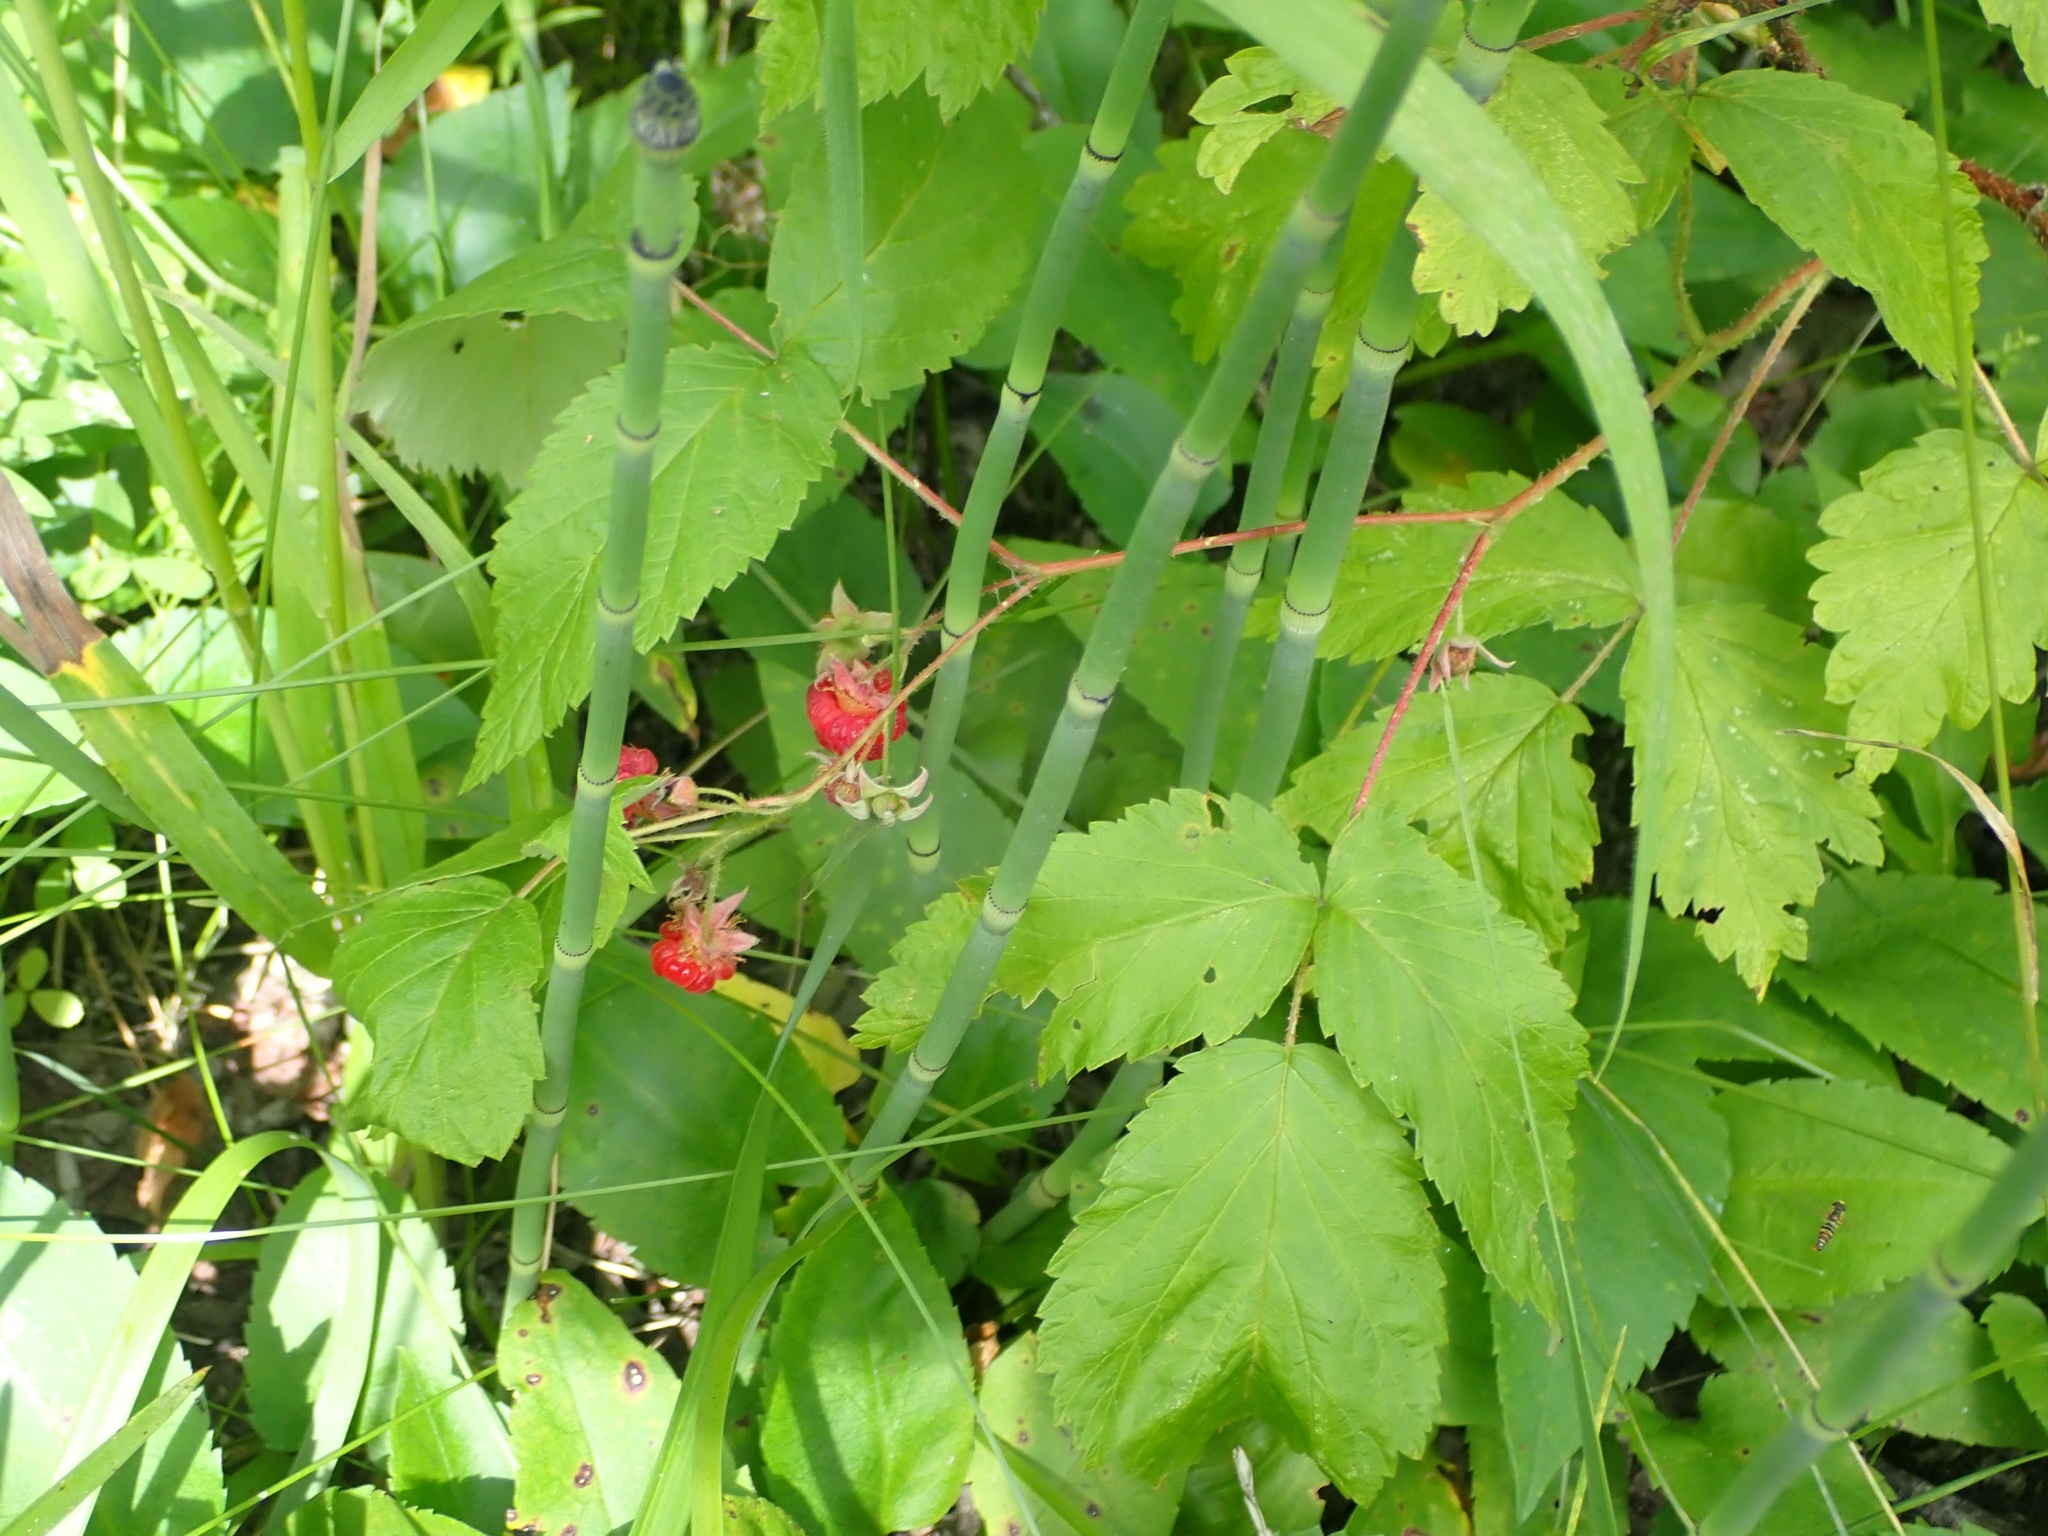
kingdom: Plantae
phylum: Tracheophyta
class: Magnoliopsida
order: Rosales
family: Rosaceae
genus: Rubus
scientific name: Rubus idaeus
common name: Raspberry
